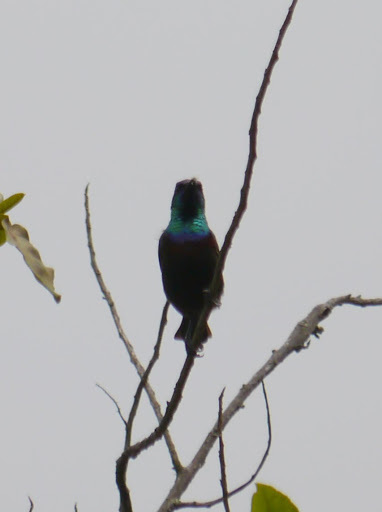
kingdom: Animalia
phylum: Chordata
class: Aves
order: Passeriformes
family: Nectariniidae
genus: Cinnyris
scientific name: Cinnyris bouvieri
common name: Orange-tufted sunbird
